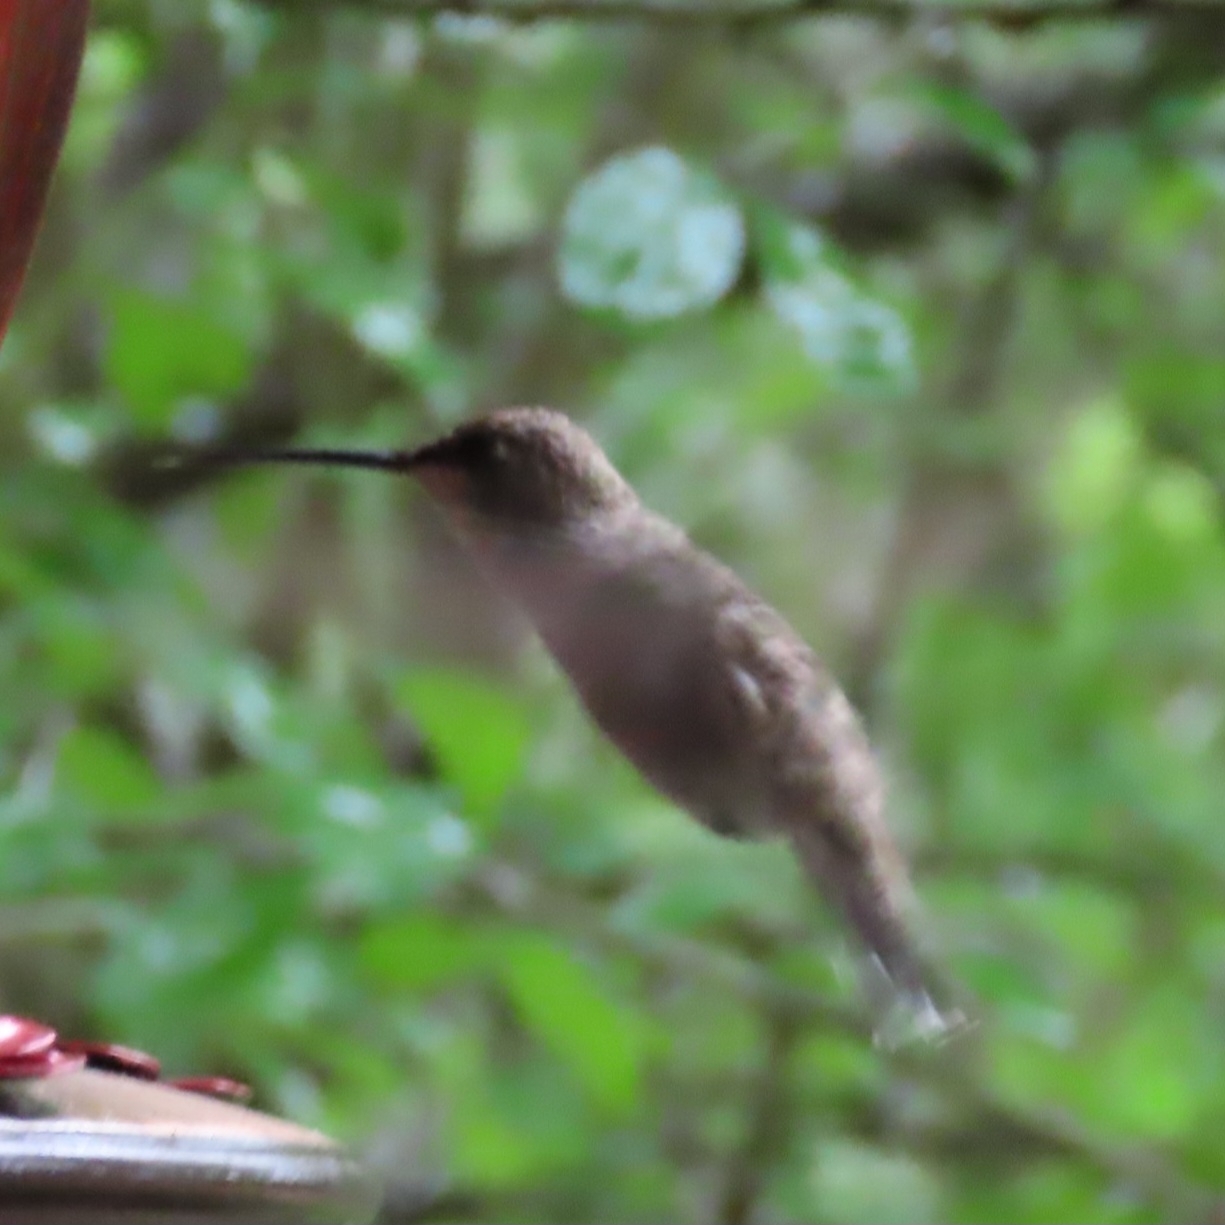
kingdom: Animalia
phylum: Chordata
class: Aves
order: Apodiformes
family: Trochilidae
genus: Archilochus
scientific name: Archilochus alexandri
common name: Black-chinned hummingbird
